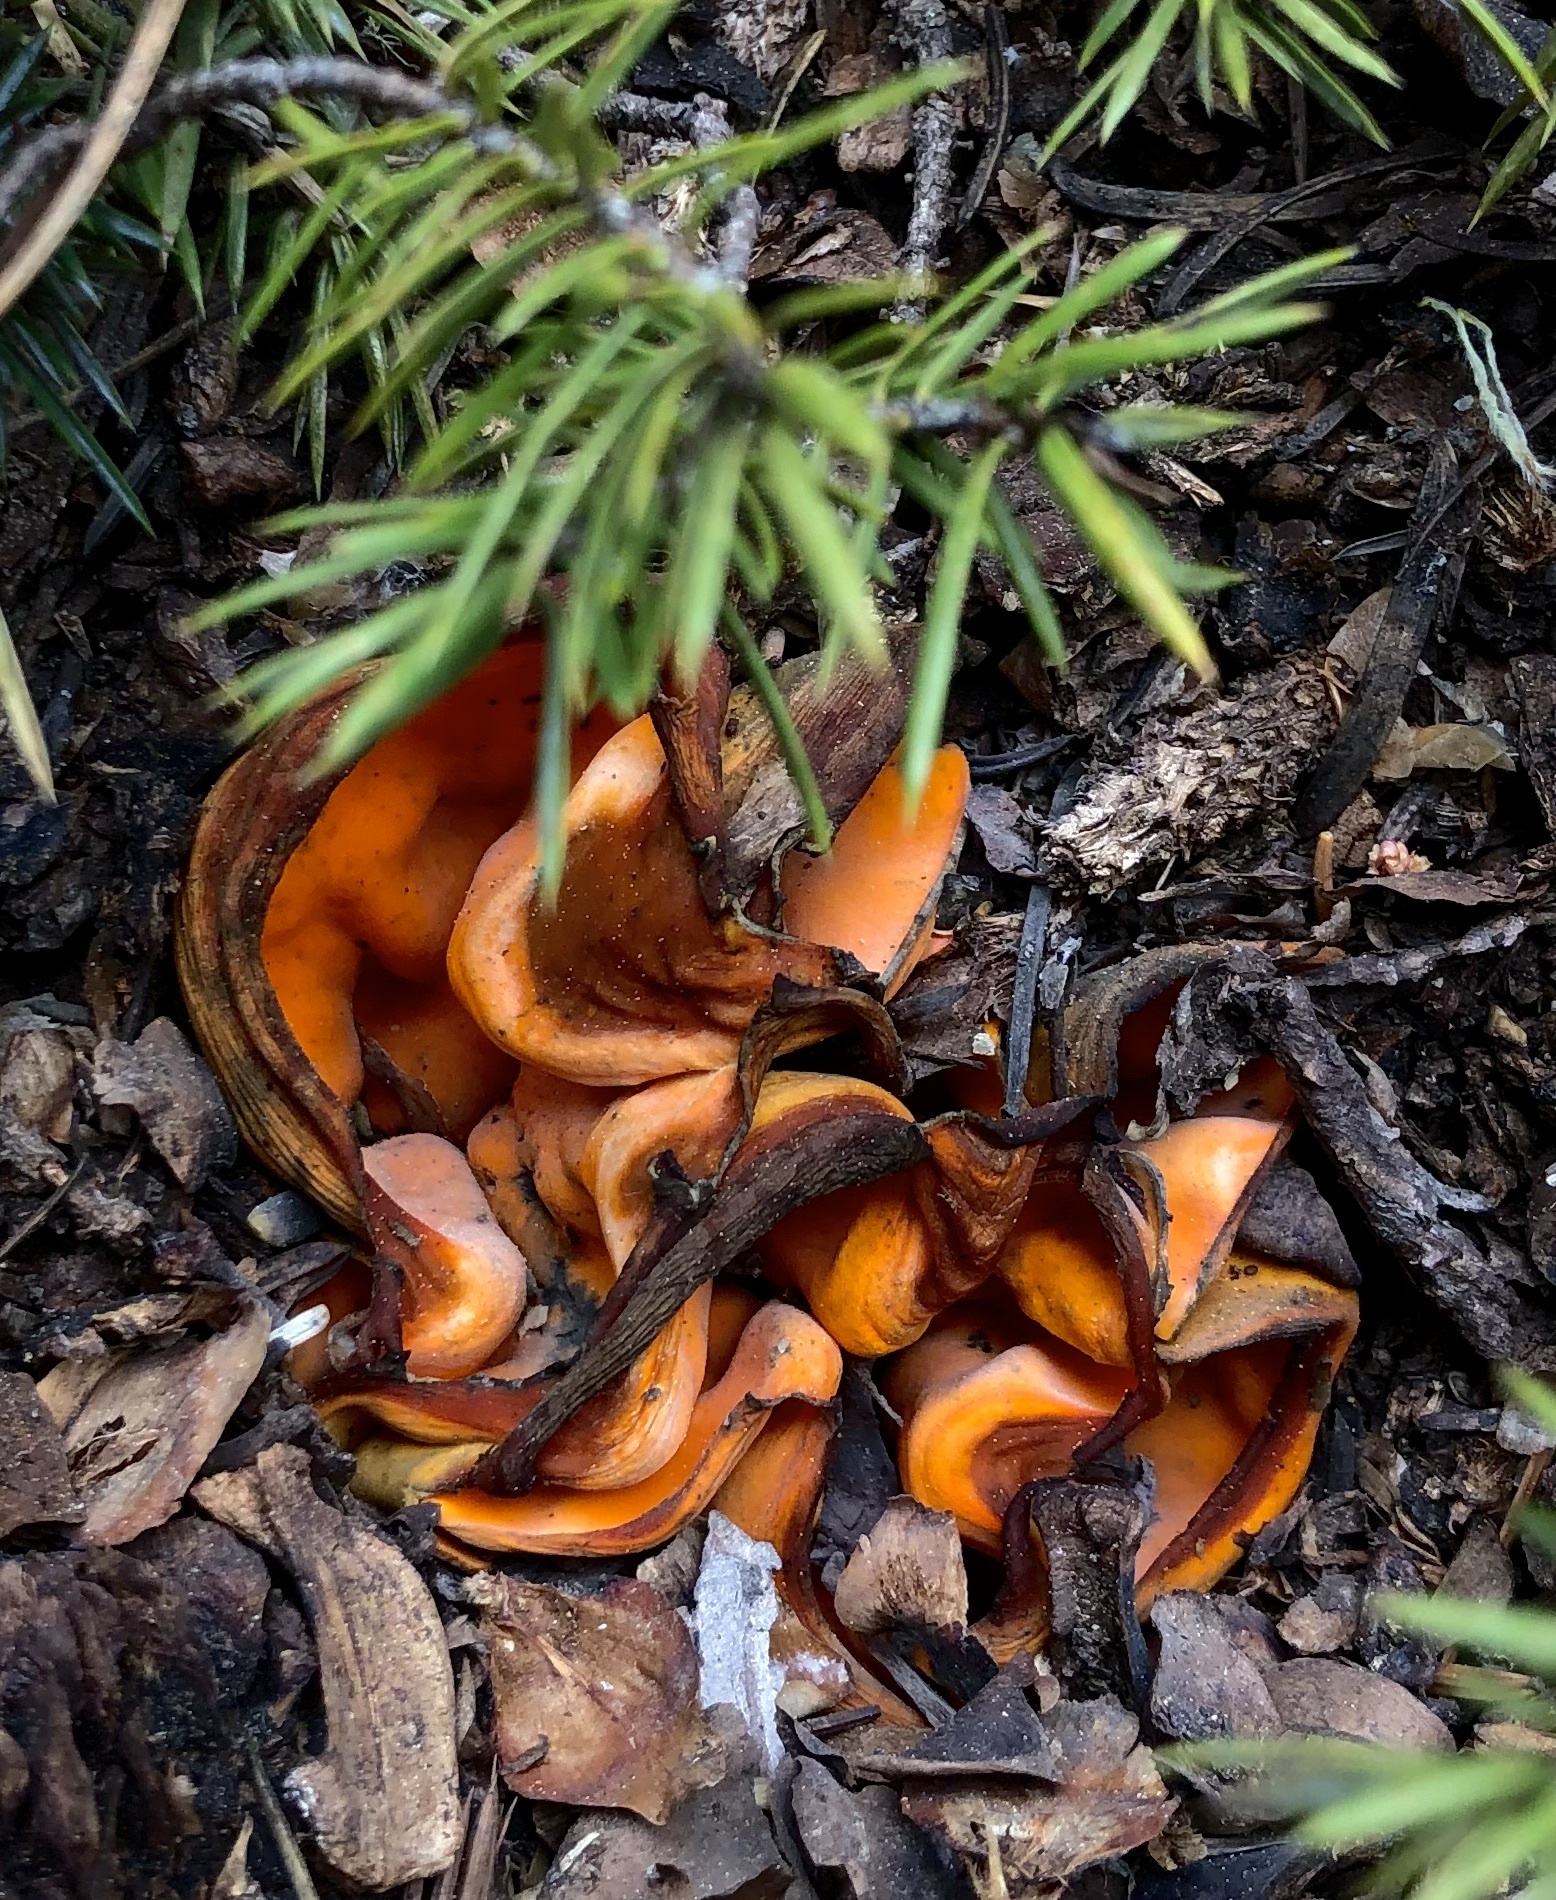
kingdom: Fungi
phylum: Ascomycota
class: Pezizomycetes
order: Pezizales
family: Caloscyphaceae
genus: Caloscypha
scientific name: Caloscypha fulgens
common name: Golden cup
